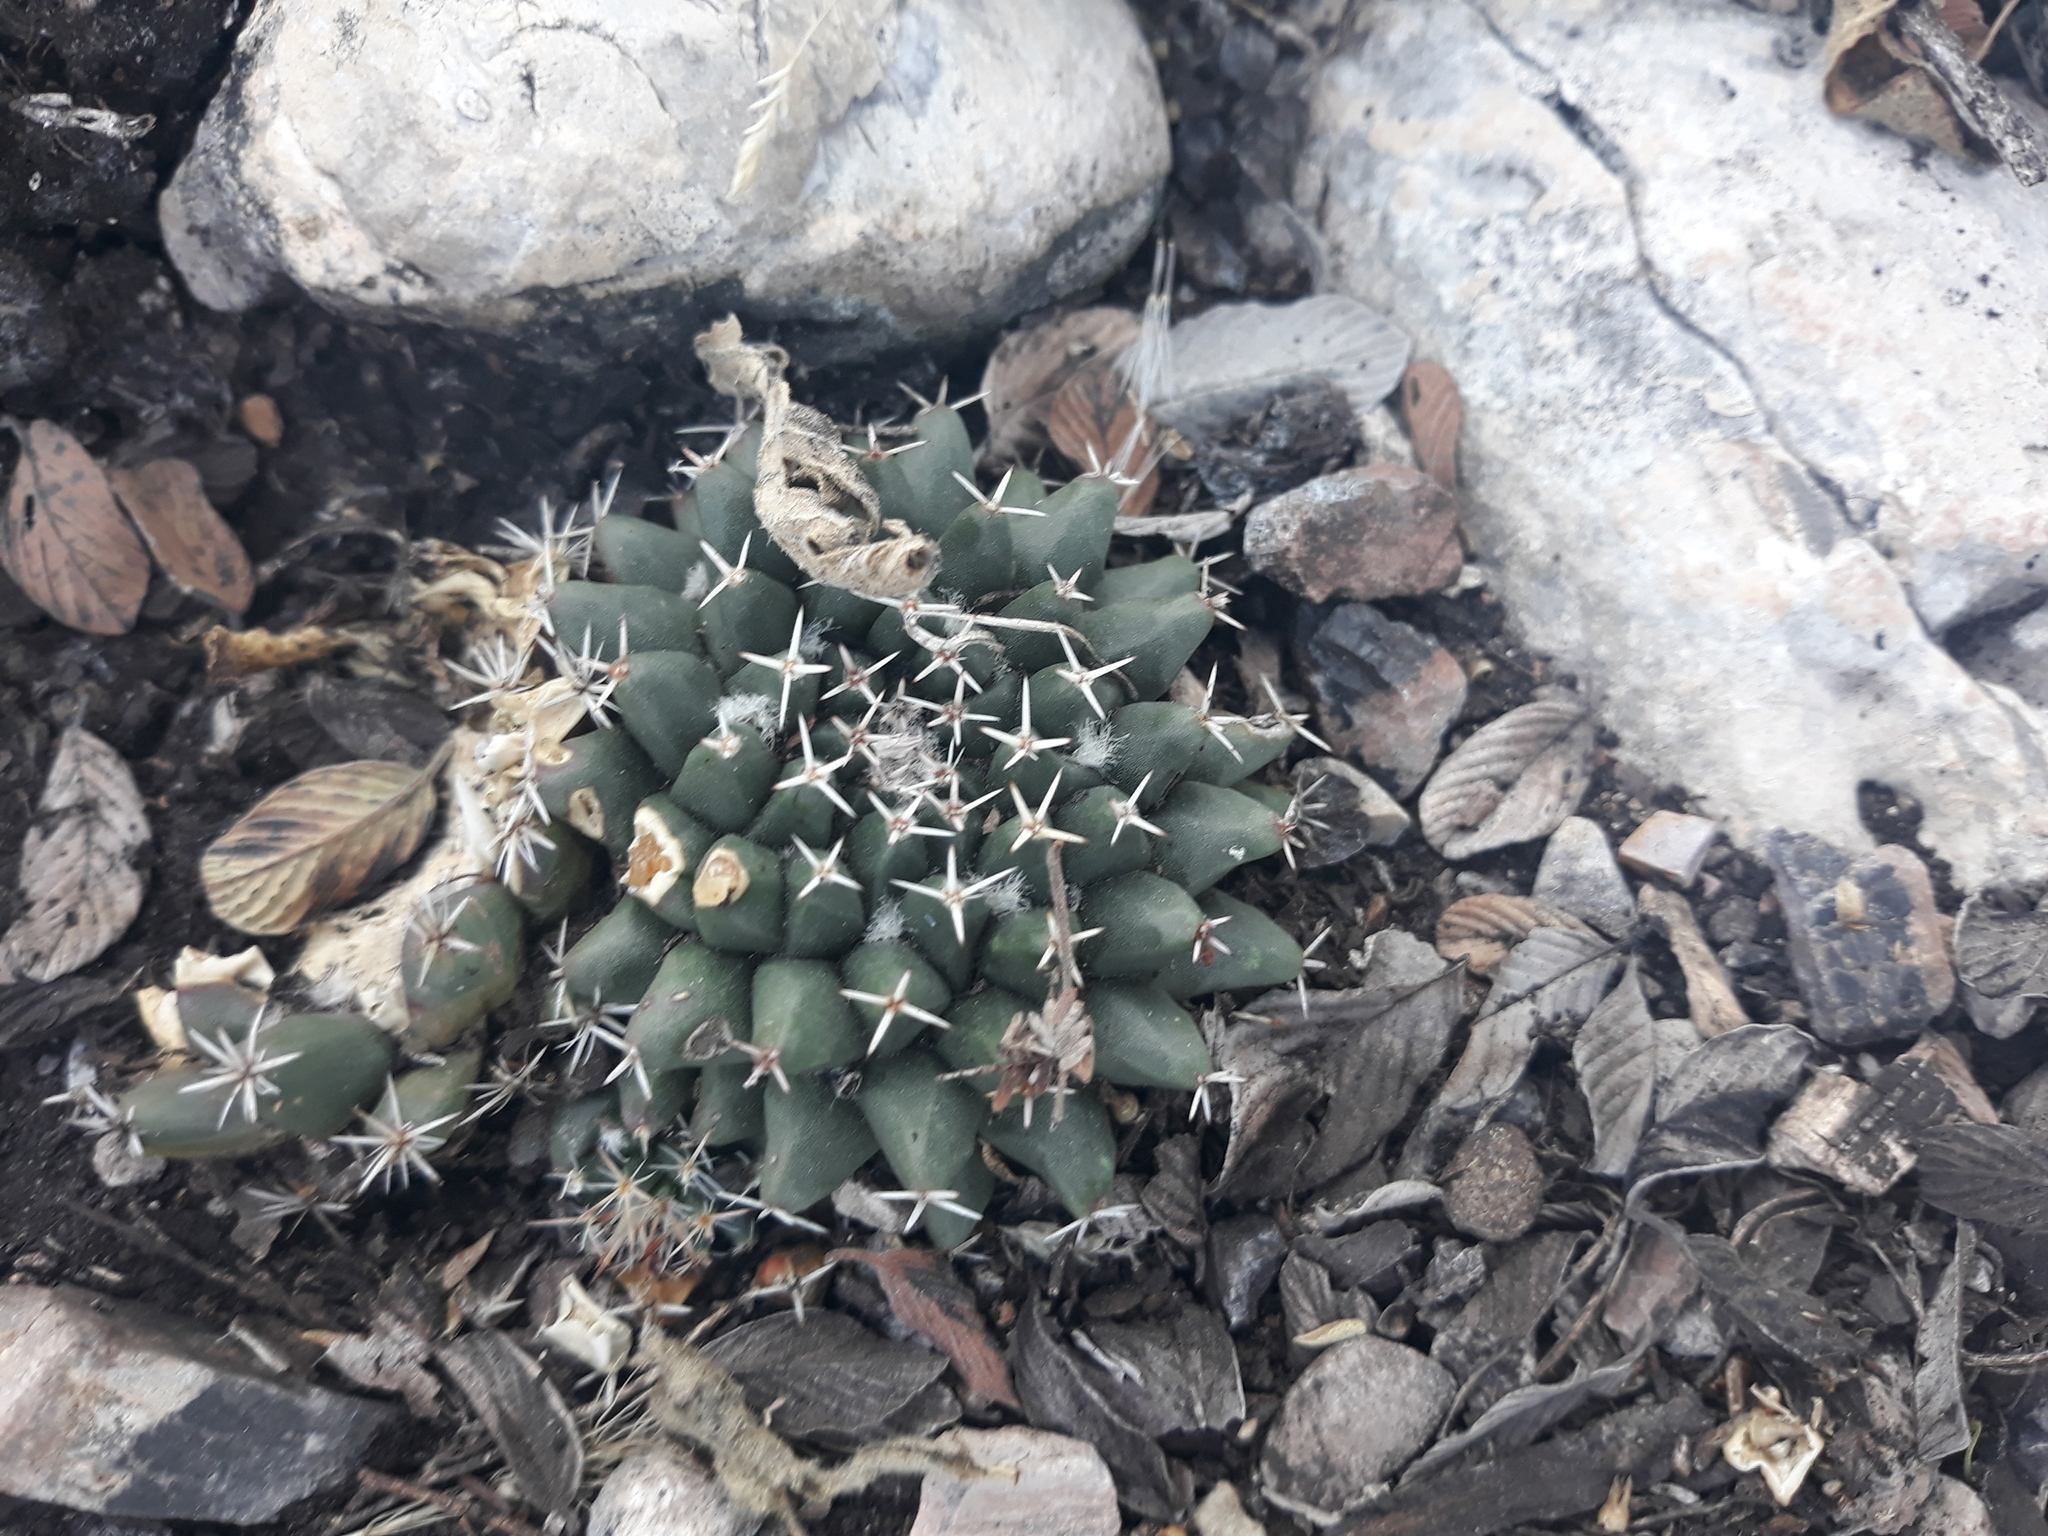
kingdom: Plantae
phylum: Tracheophyta
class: Magnoliopsida
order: Caryophyllales
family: Cactaceae
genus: Mammillaria
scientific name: Mammillaria
